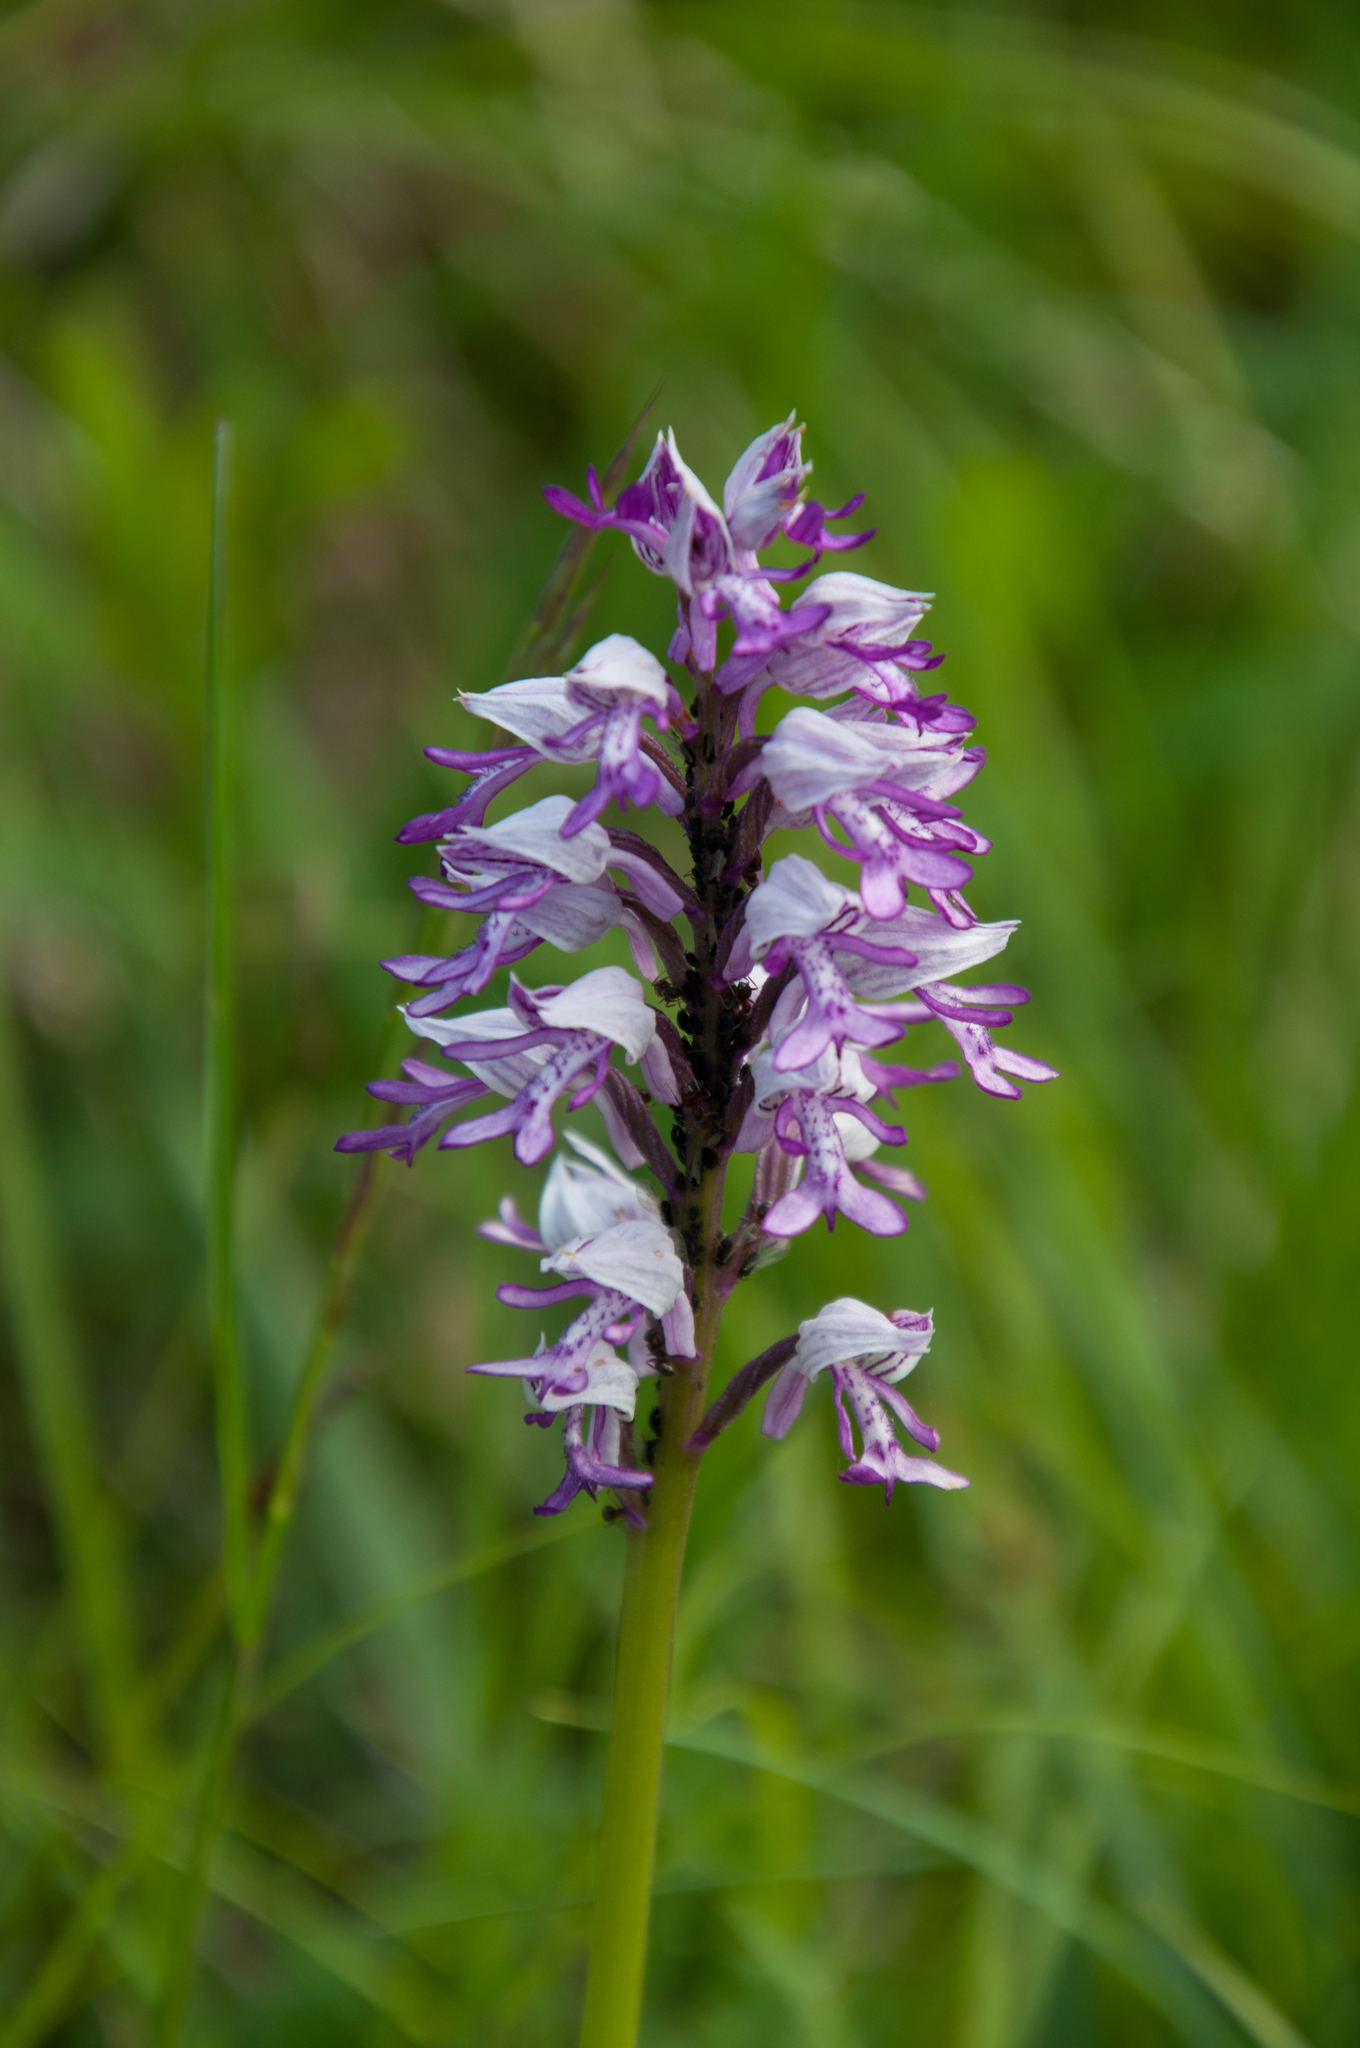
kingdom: Plantae
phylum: Tracheophyta
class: Liliopsida
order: Asparagales
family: Orchidaceae
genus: Orchis
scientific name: Orchis militaris
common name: Military orchid
